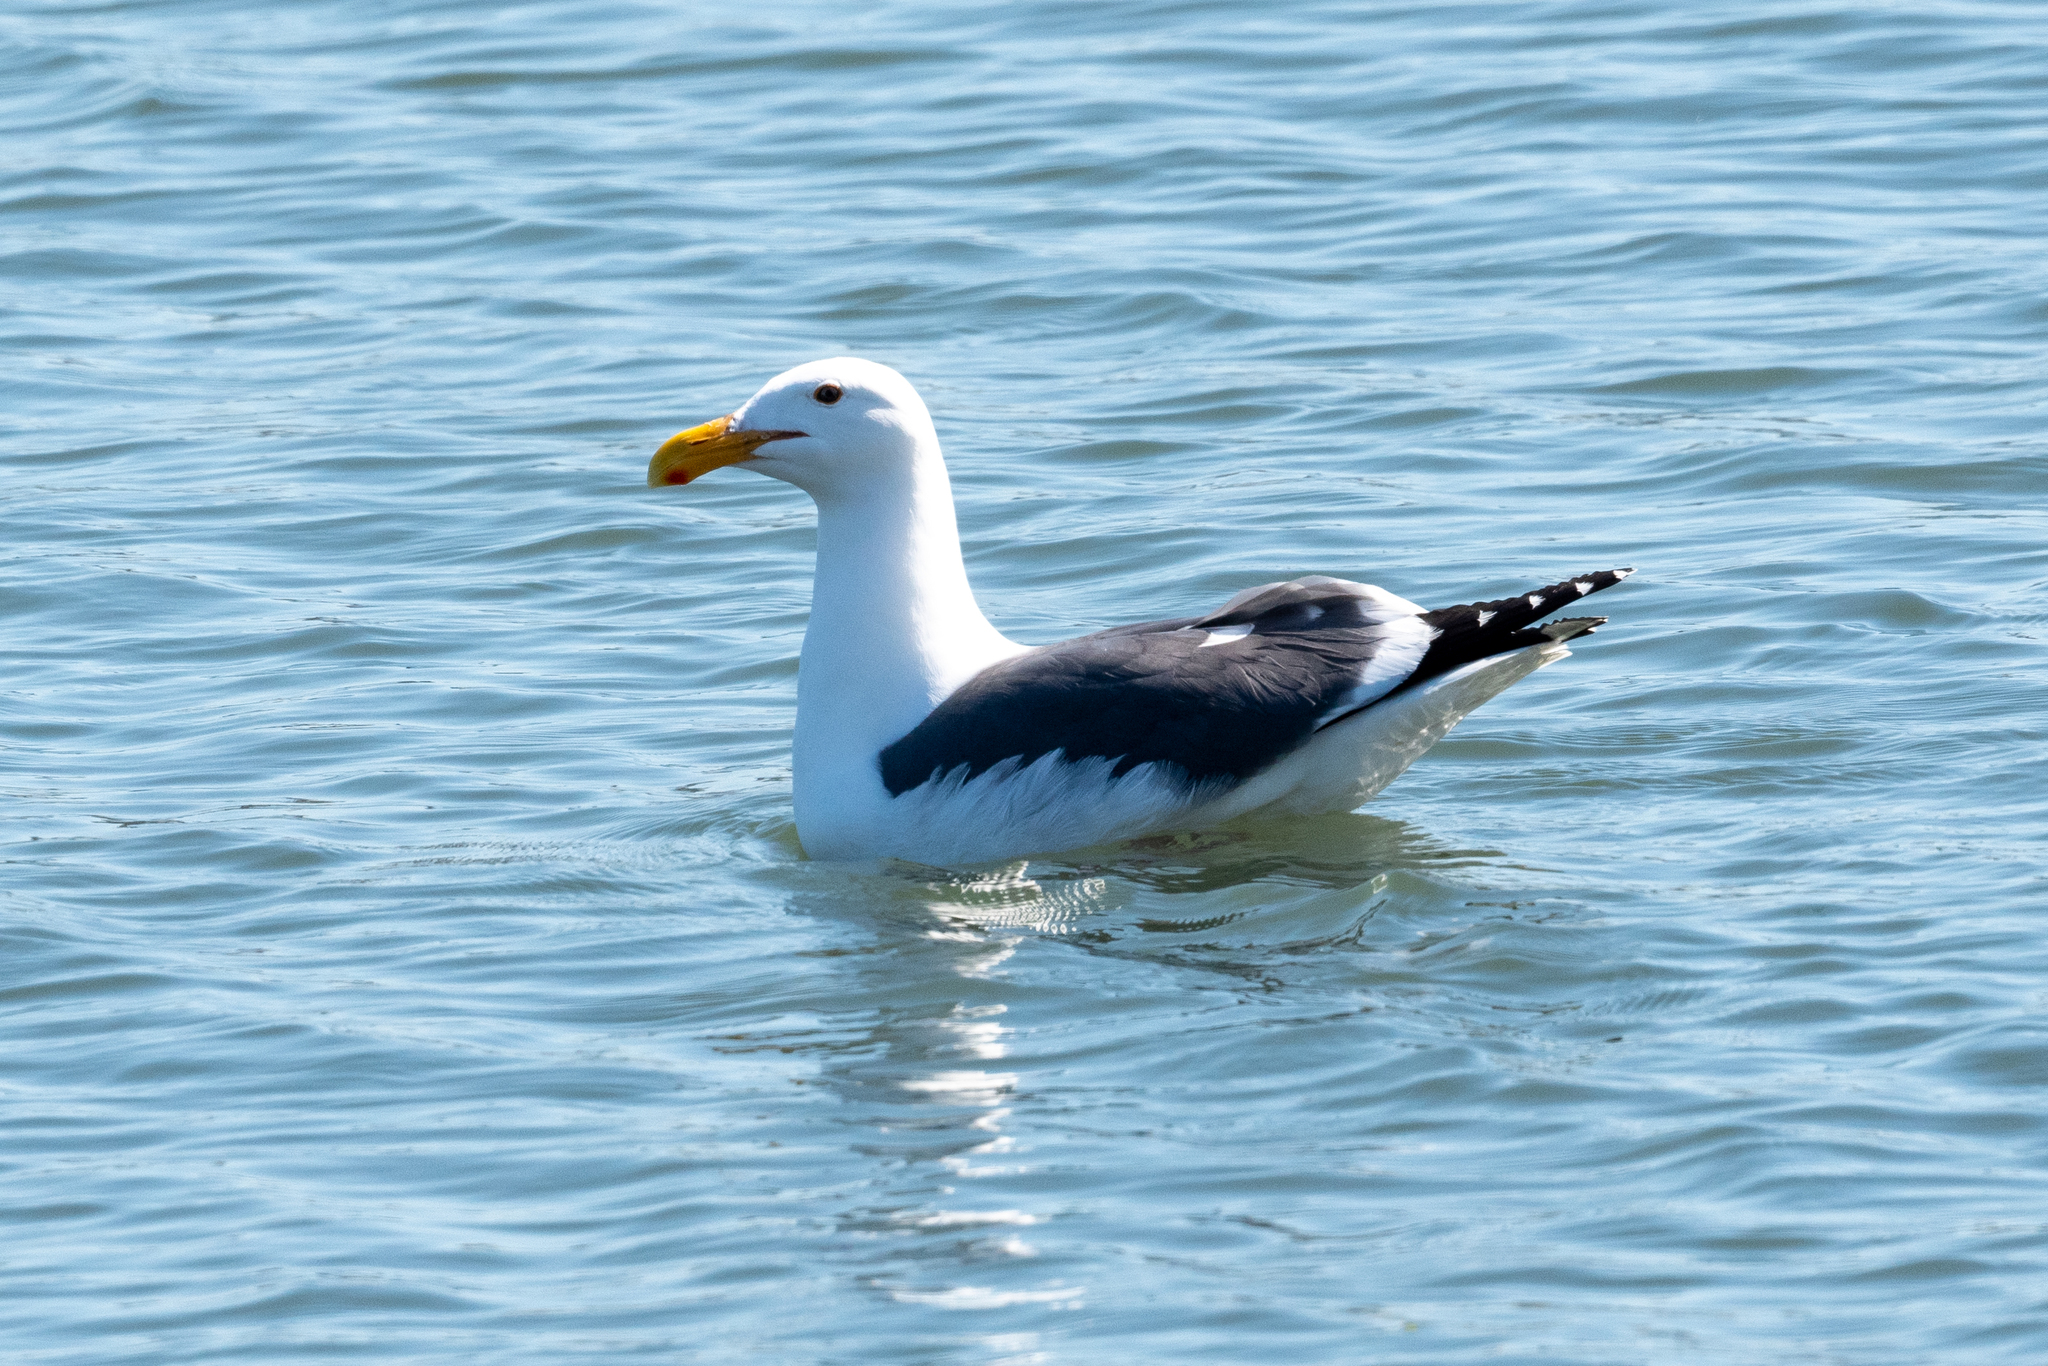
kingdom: Animalia
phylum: Chordata
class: Aves
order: Charadriiformes
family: Laridae
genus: Larus
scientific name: Larus occidentalis
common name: Western gull
